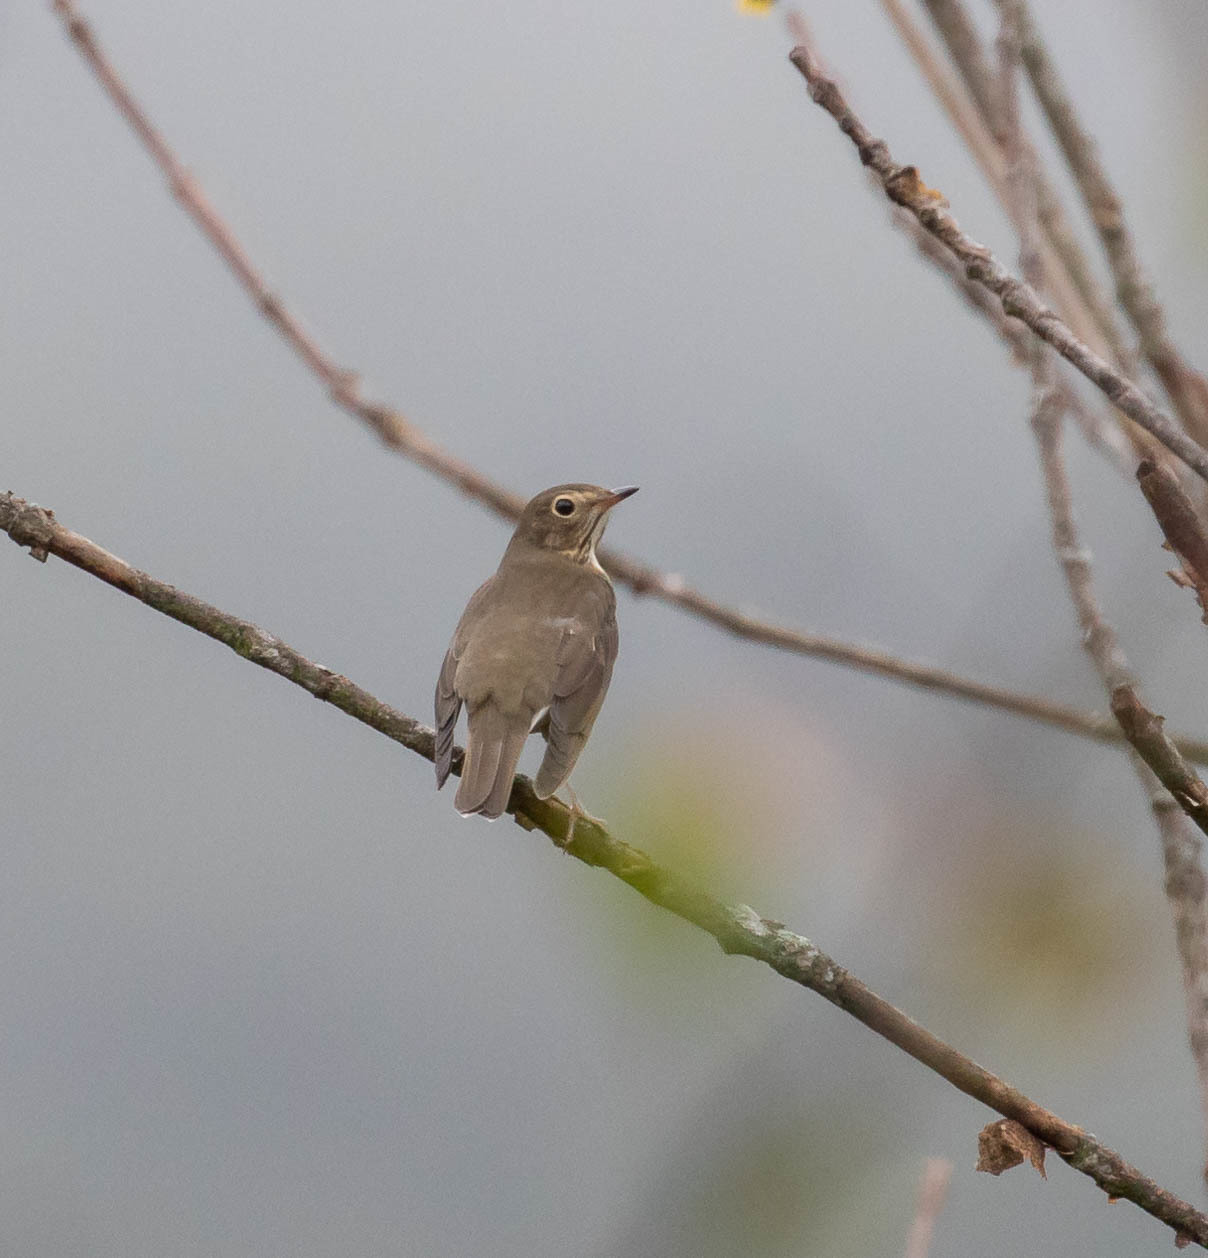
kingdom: Animalia
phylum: Chordata
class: Aves
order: Passeriformes
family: Turdidae
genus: Catharus
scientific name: Catharus ustulatus
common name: Swainson's thrush
